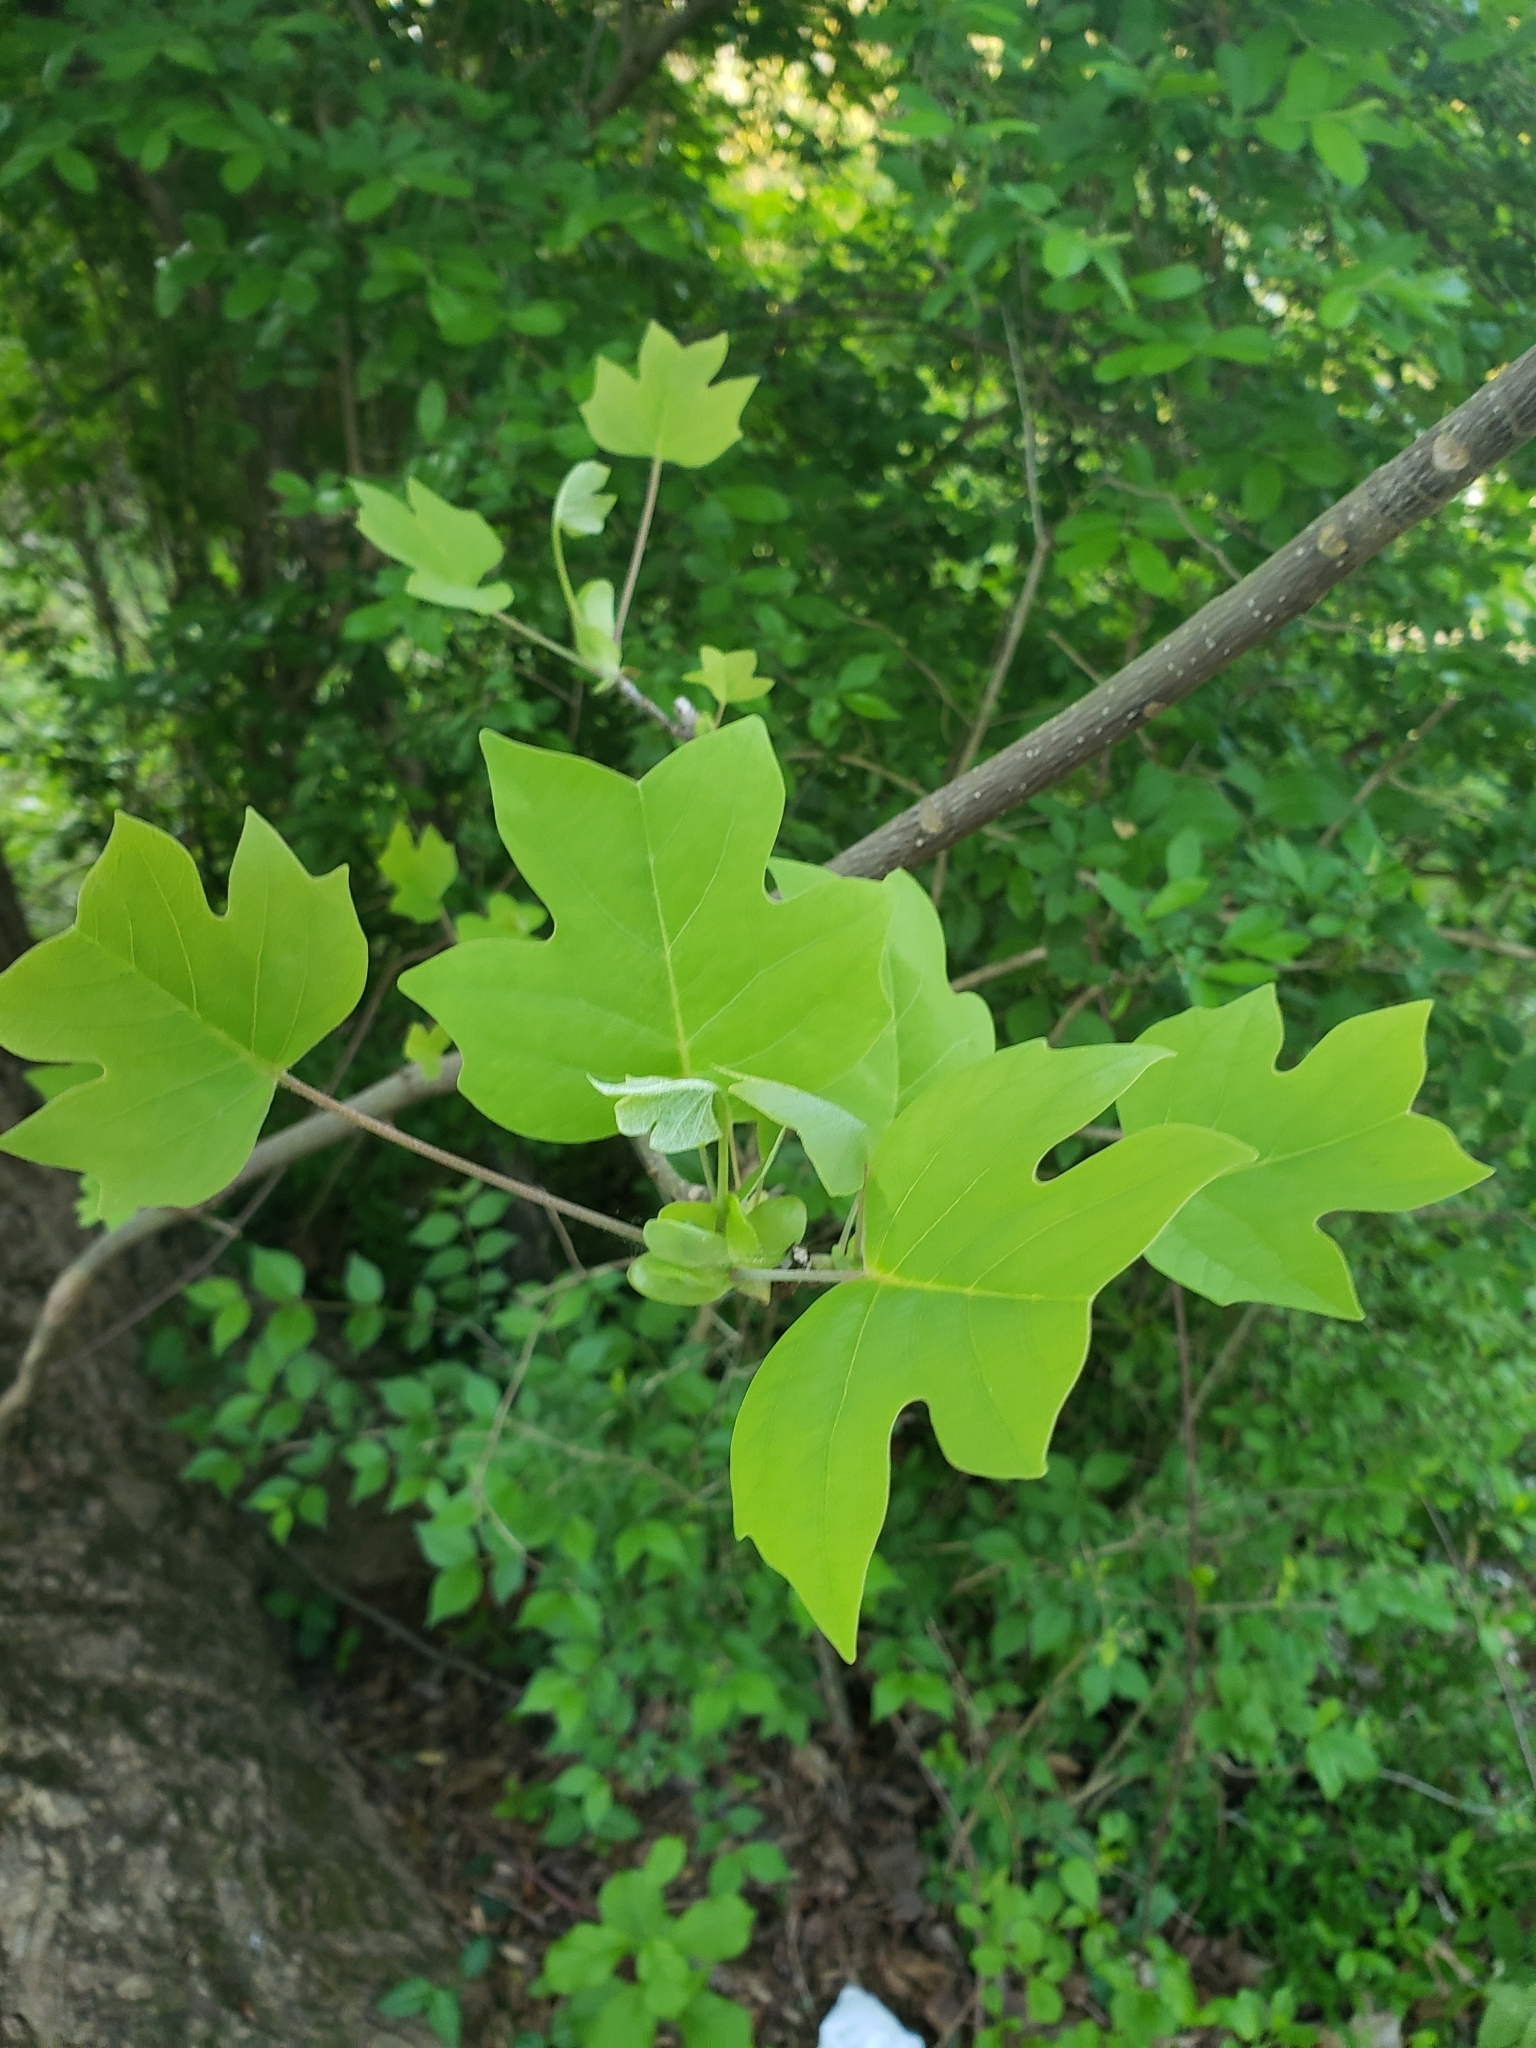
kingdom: Plantae
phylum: Tracheophyta
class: Magnoliopsida
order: Magnoliales
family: Magnoliaceae
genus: Liriodendron
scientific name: Liriodendron tulipifera
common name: Tulip tree
